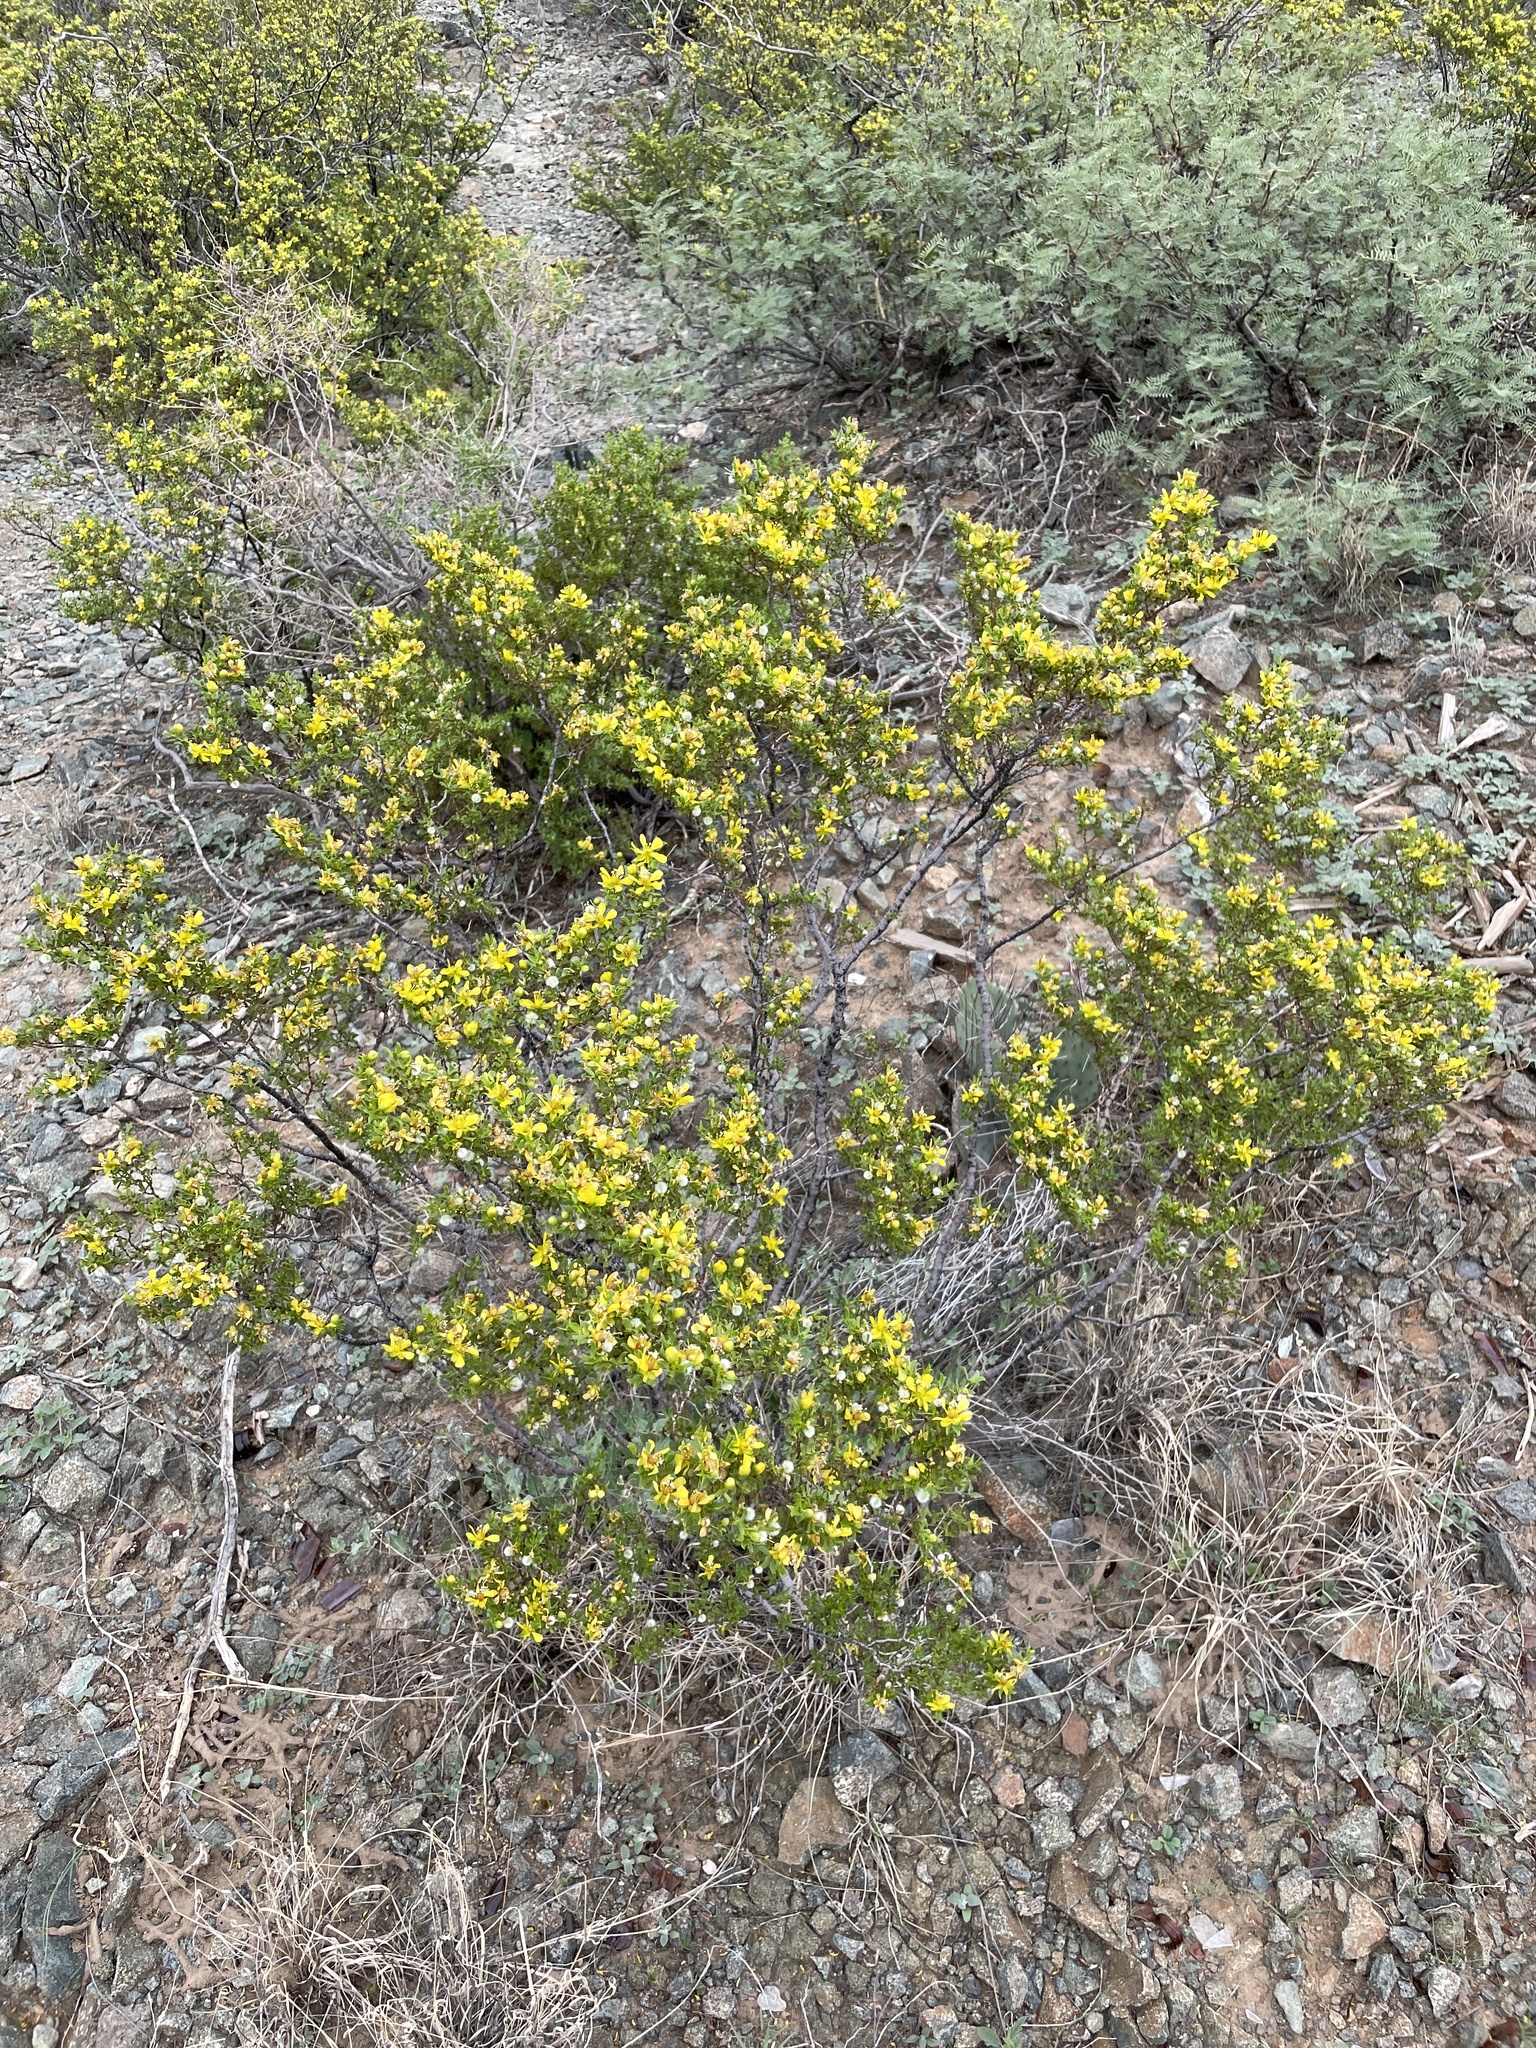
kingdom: Plantae
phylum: Tracheophyta
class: Magnoliopsida
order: Zygophyllales
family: Zygophyllaceae
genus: Larrea
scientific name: Larrea tridentata
